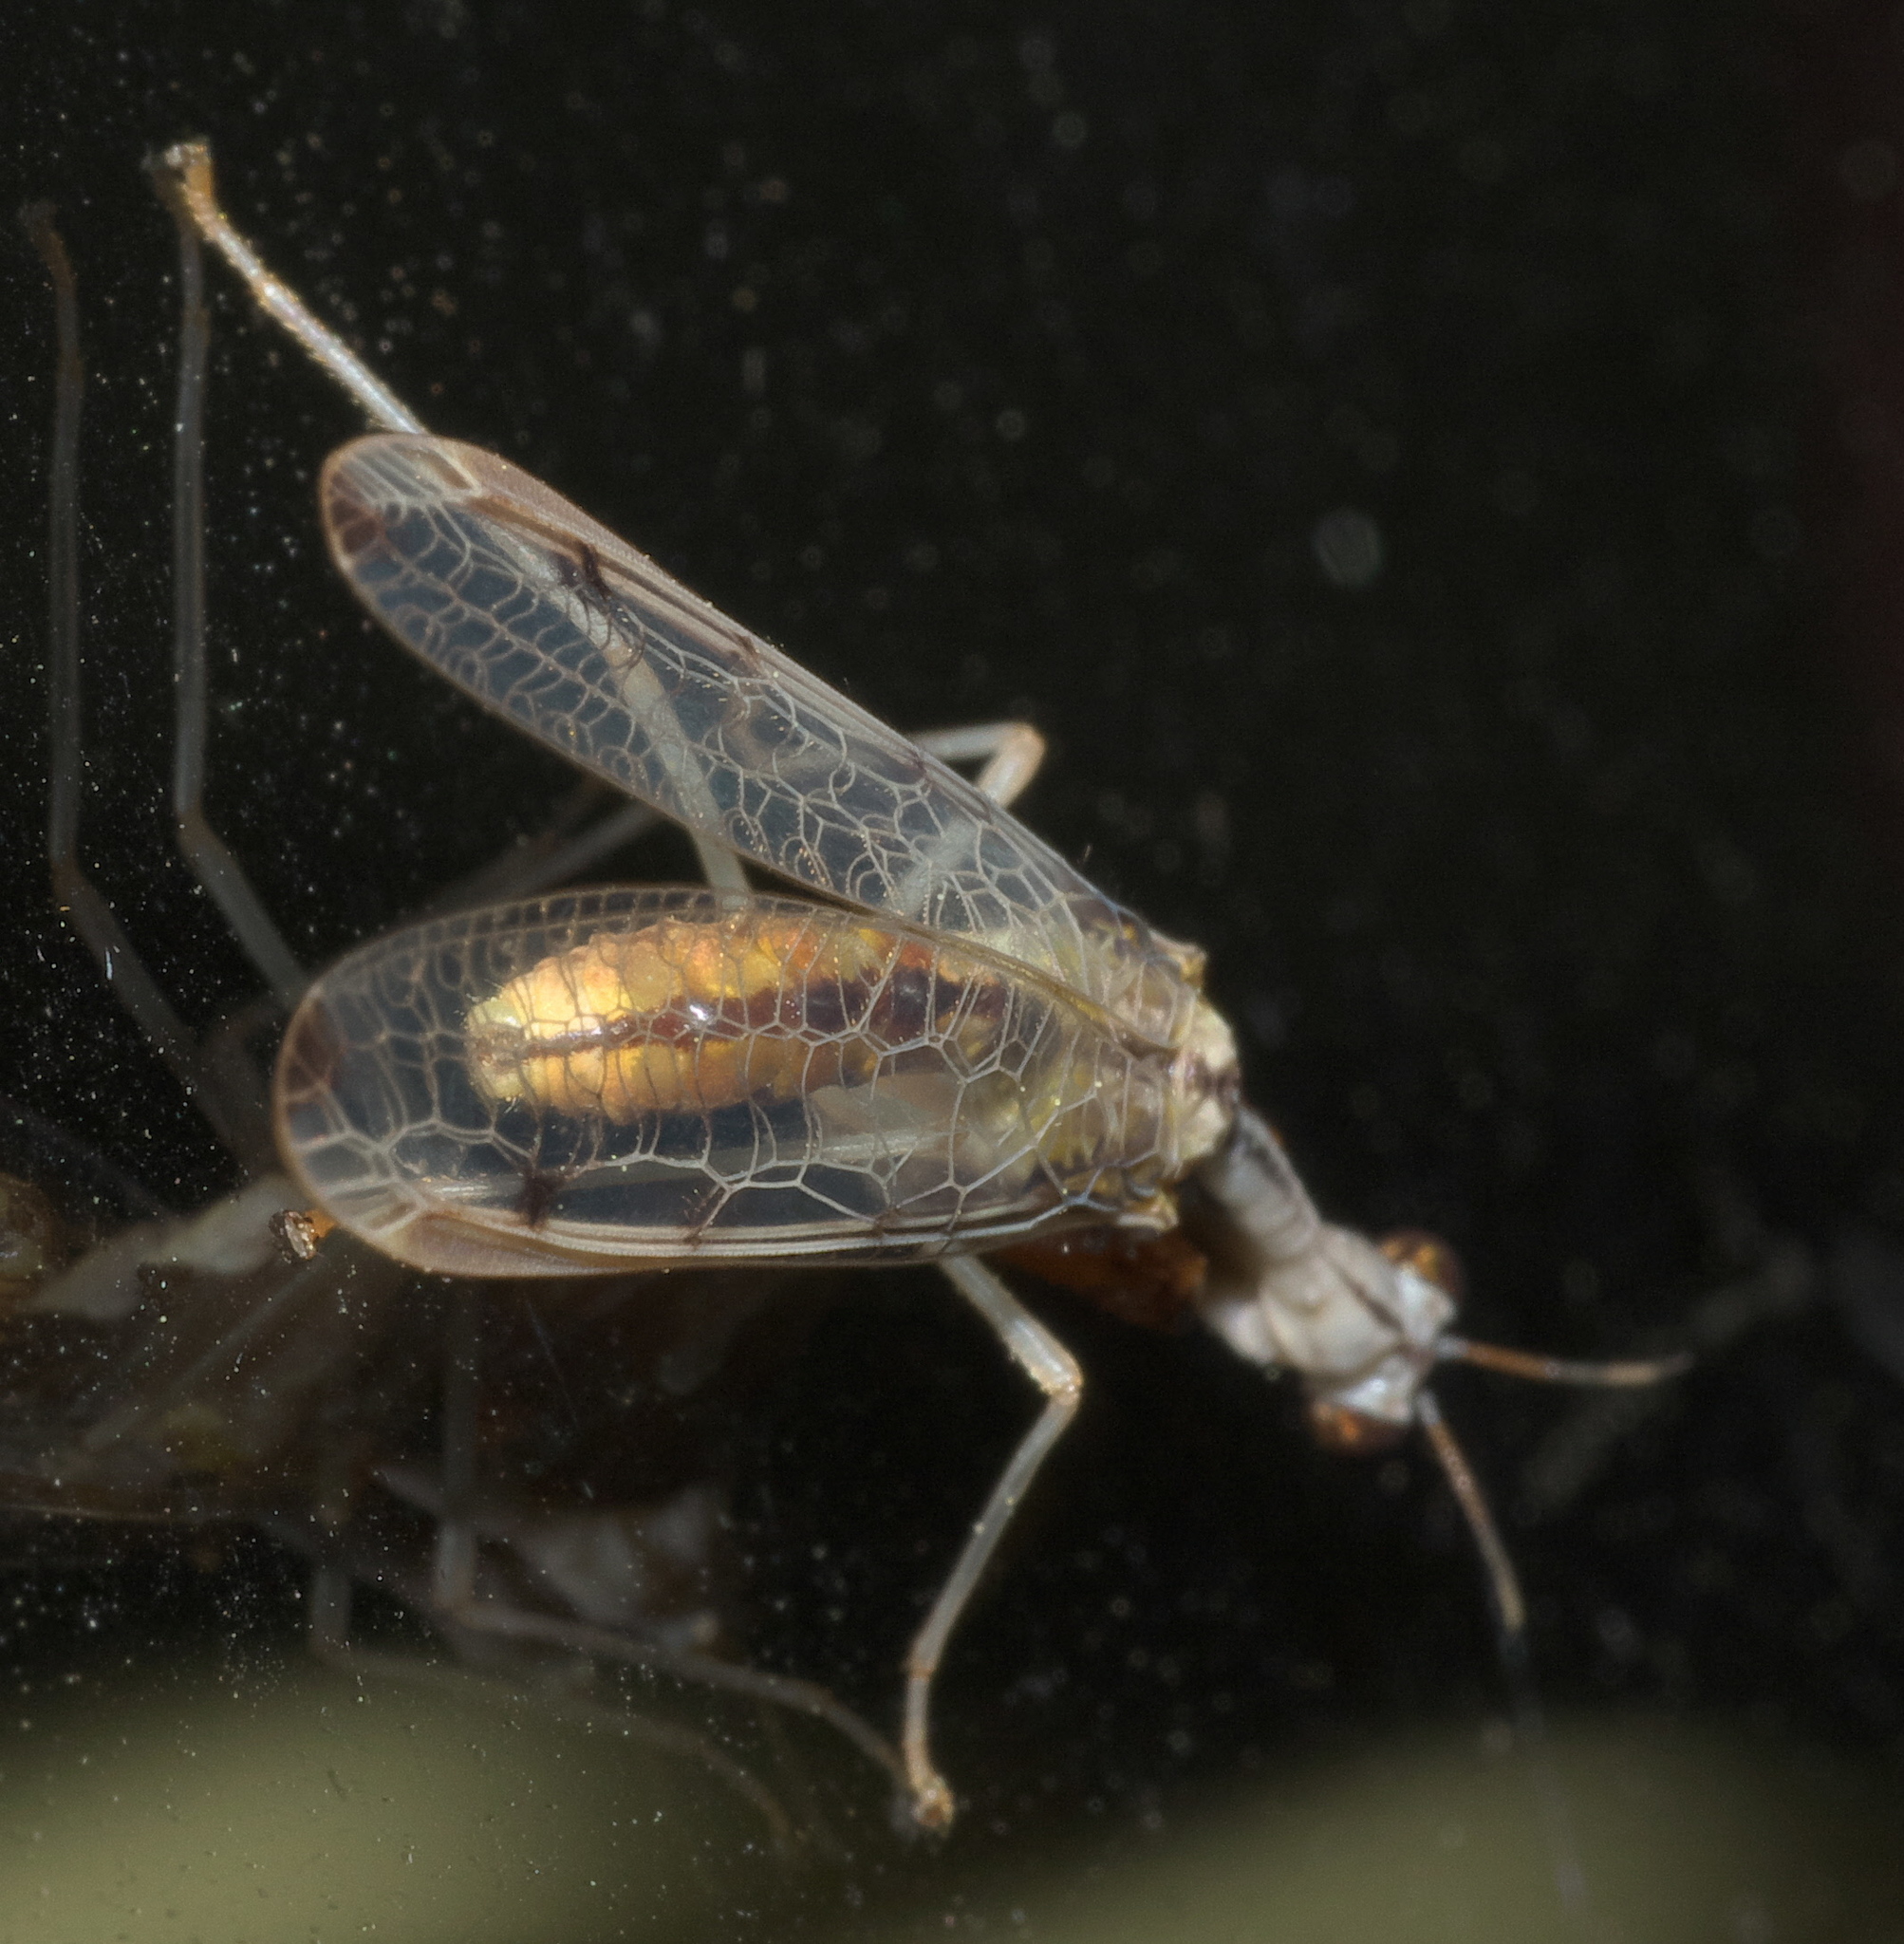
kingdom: Animalia
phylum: Arthropoda
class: Insecta
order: Neuroptera
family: Mantispidae
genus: Dicromantispa
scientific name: Dicromantispa interrupta
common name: Four-spotted mantidfly
